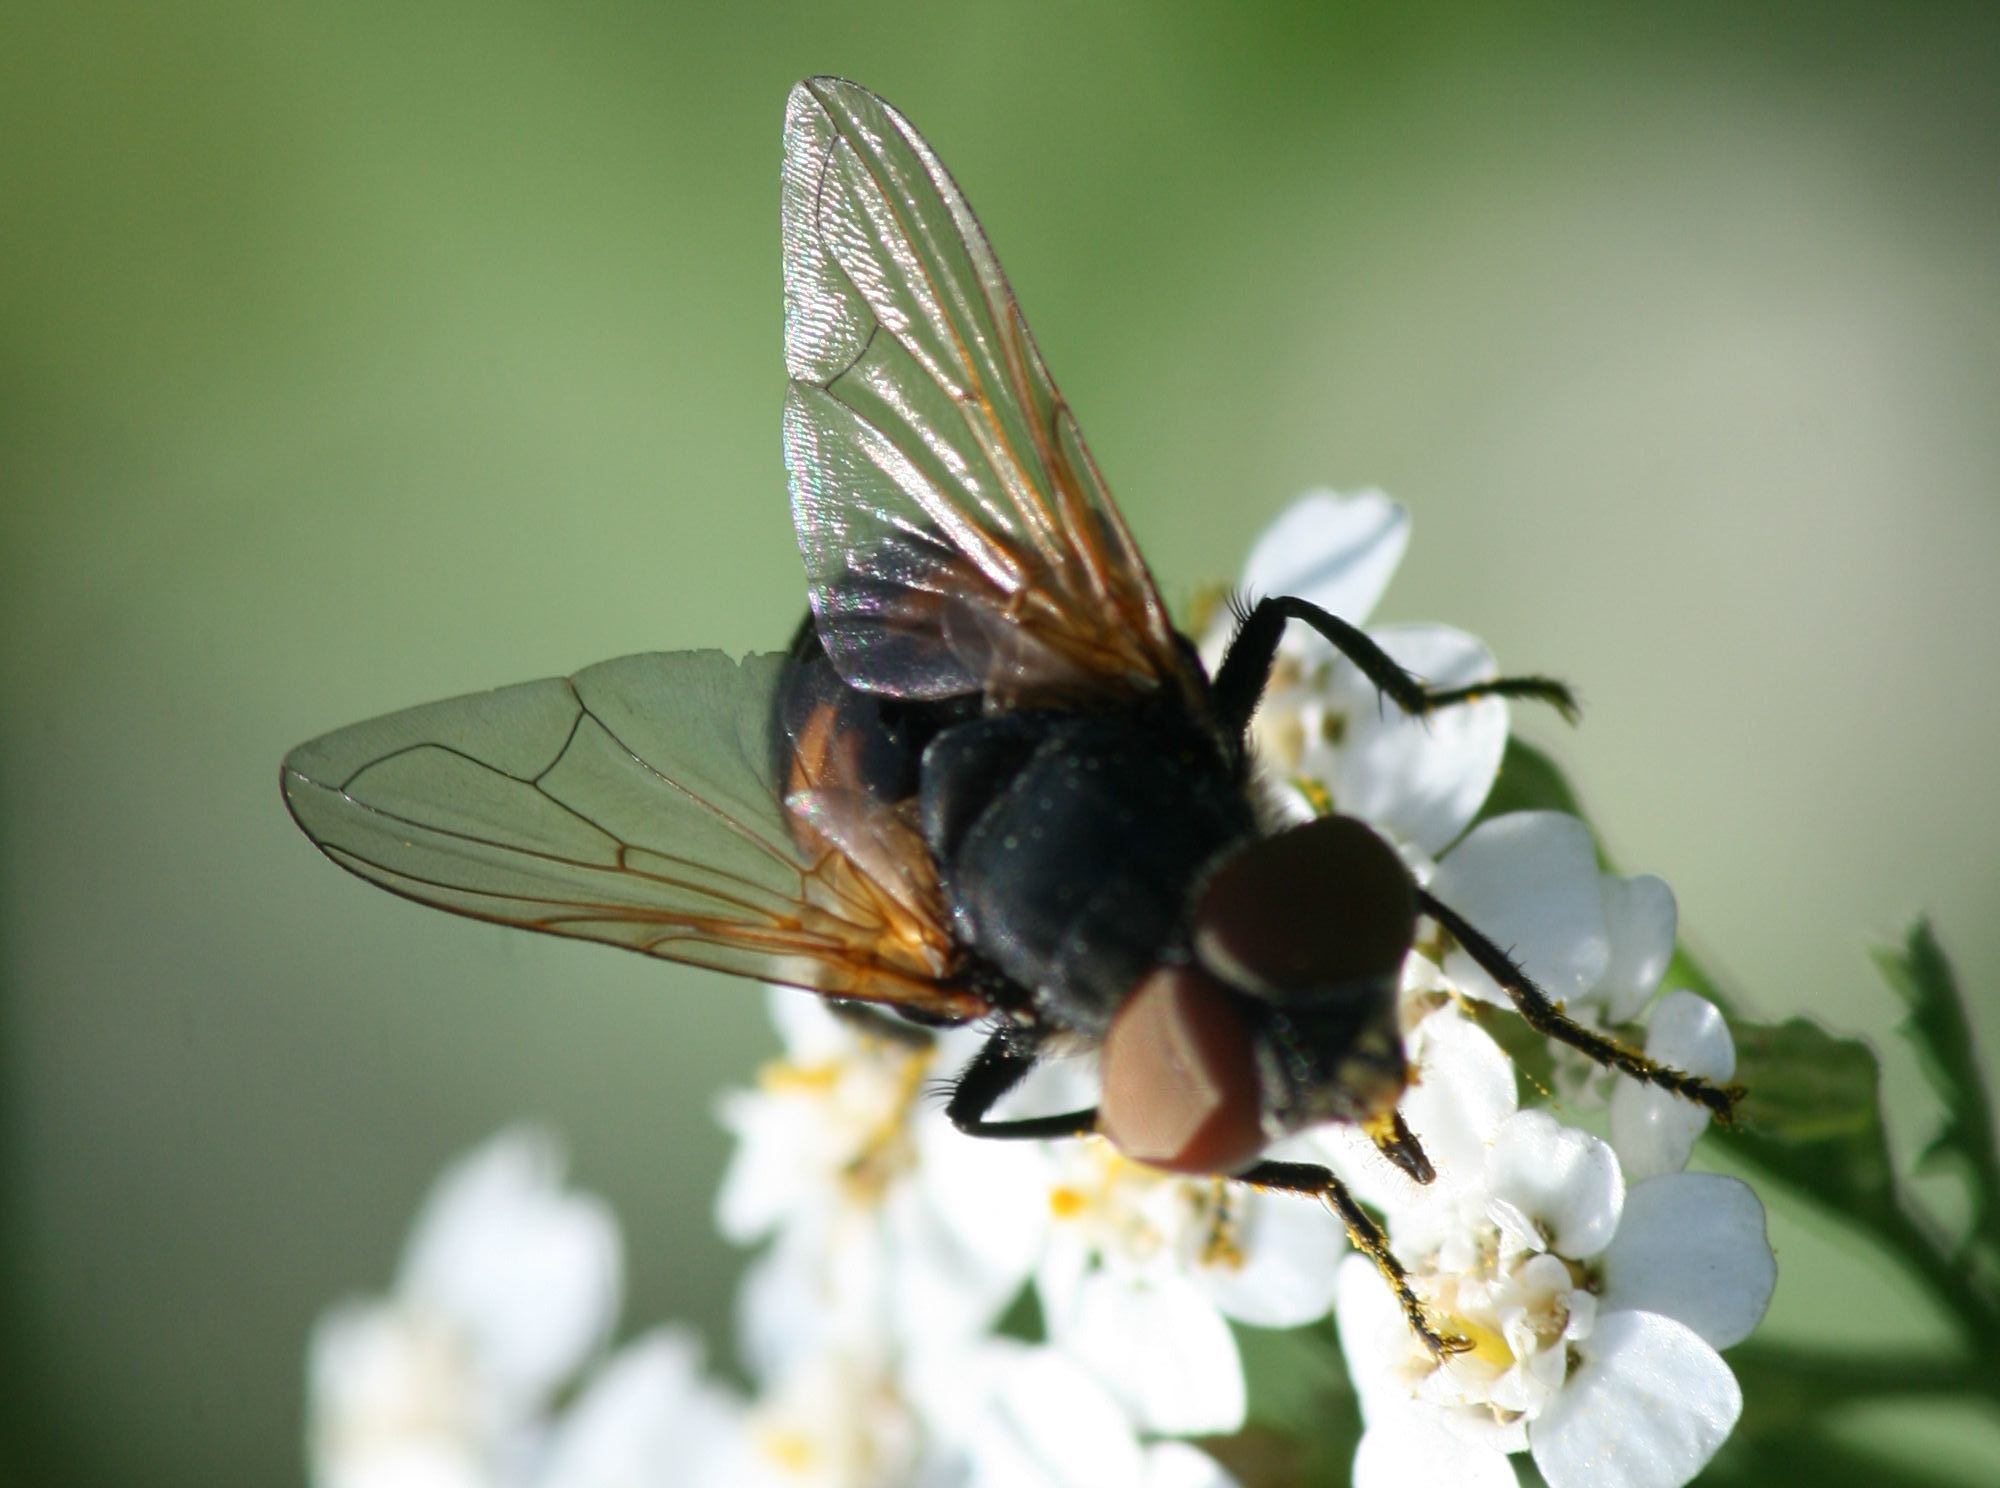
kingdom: Animalia
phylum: Arthropoda
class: Insecta
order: Diptera
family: Tachinidae
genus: Phasia
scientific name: Phasia aurigera
